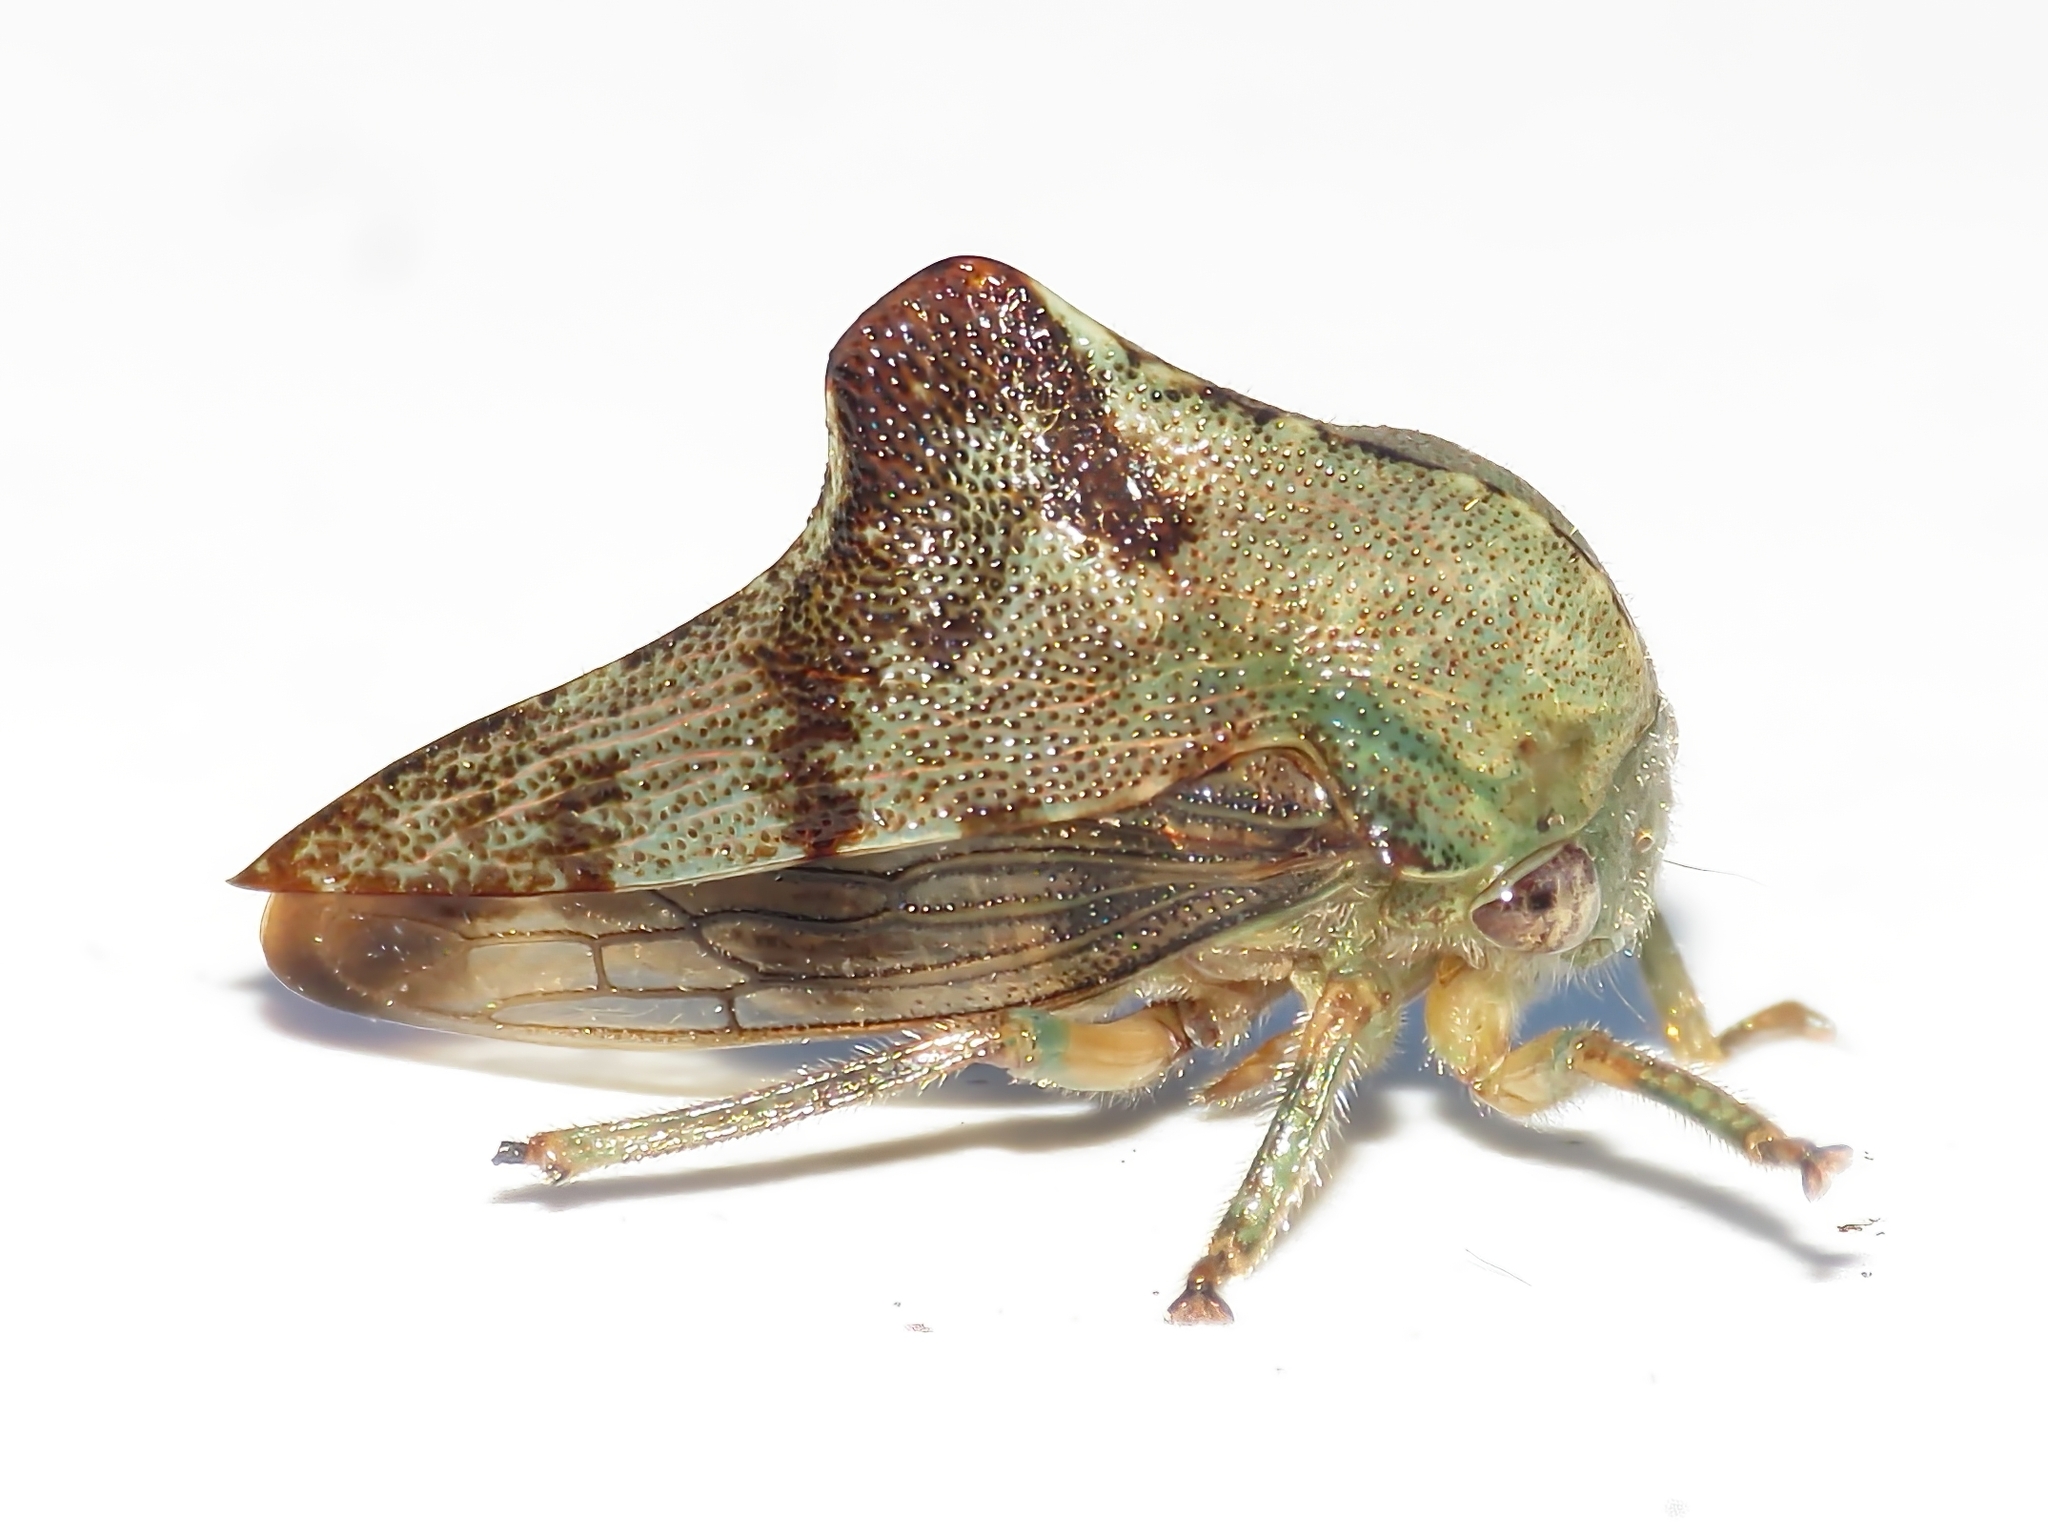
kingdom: Animalia
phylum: Arthropoda
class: Insecta
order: Hemiptera
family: Membracidae
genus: Telamona
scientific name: Telamona tiliae
